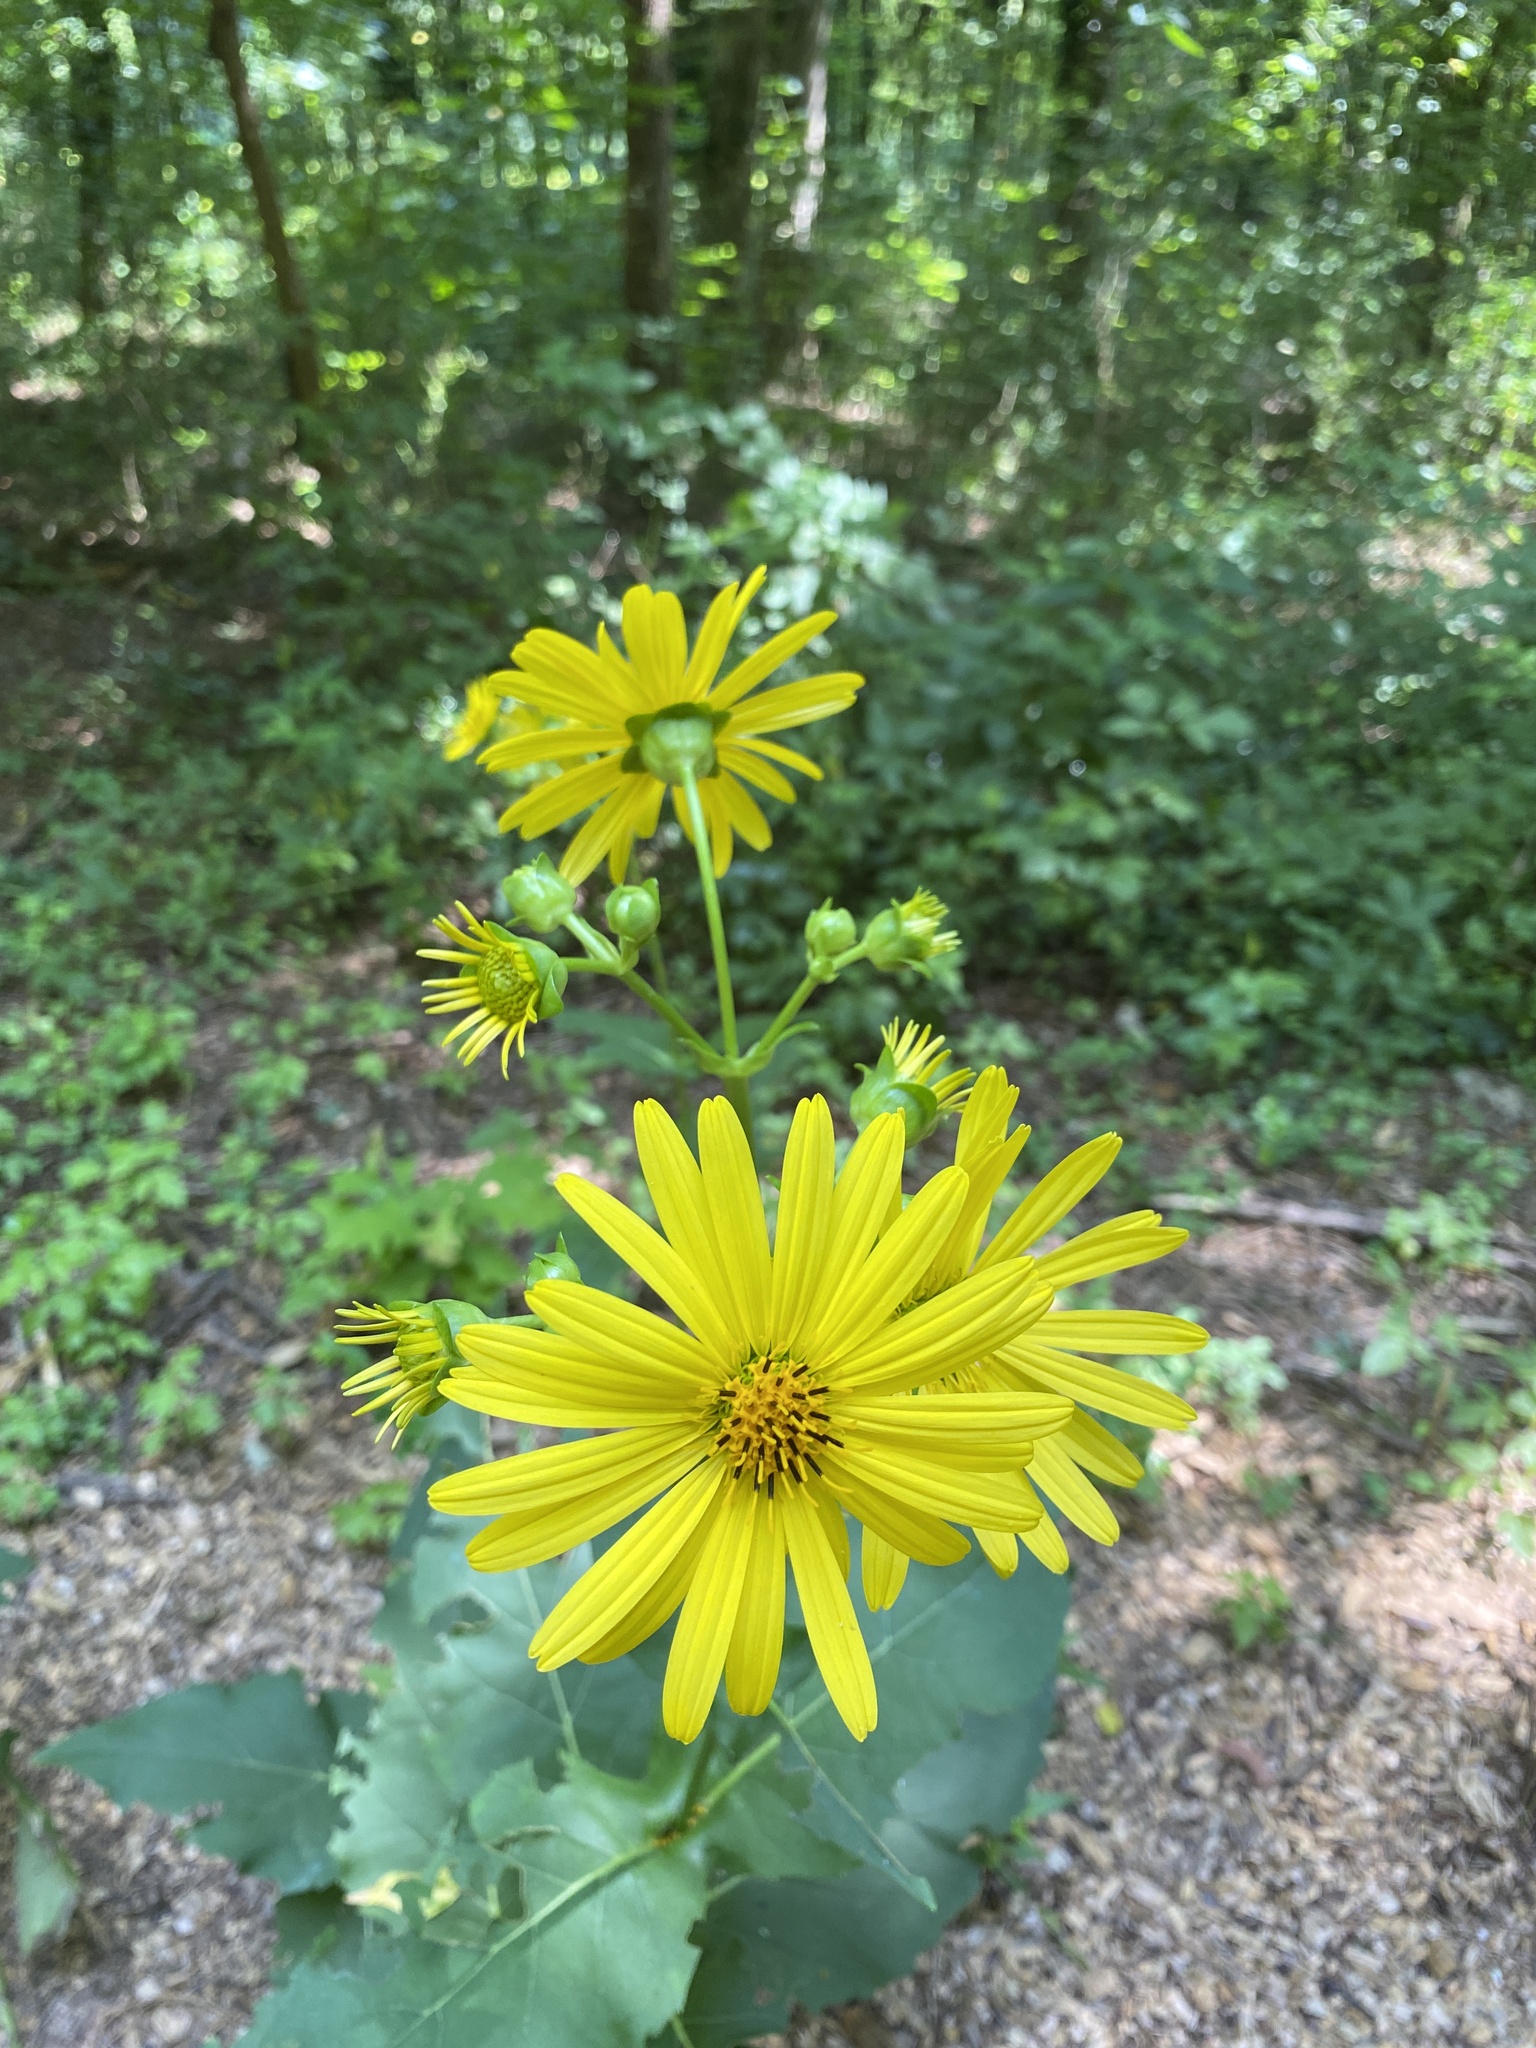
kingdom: Plantae
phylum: Tracheophyta
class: Magnoliopsida
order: Asterales
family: Asteraceae
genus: Helianthus
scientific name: Helianthus angustifolius
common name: Swamp sunflower
